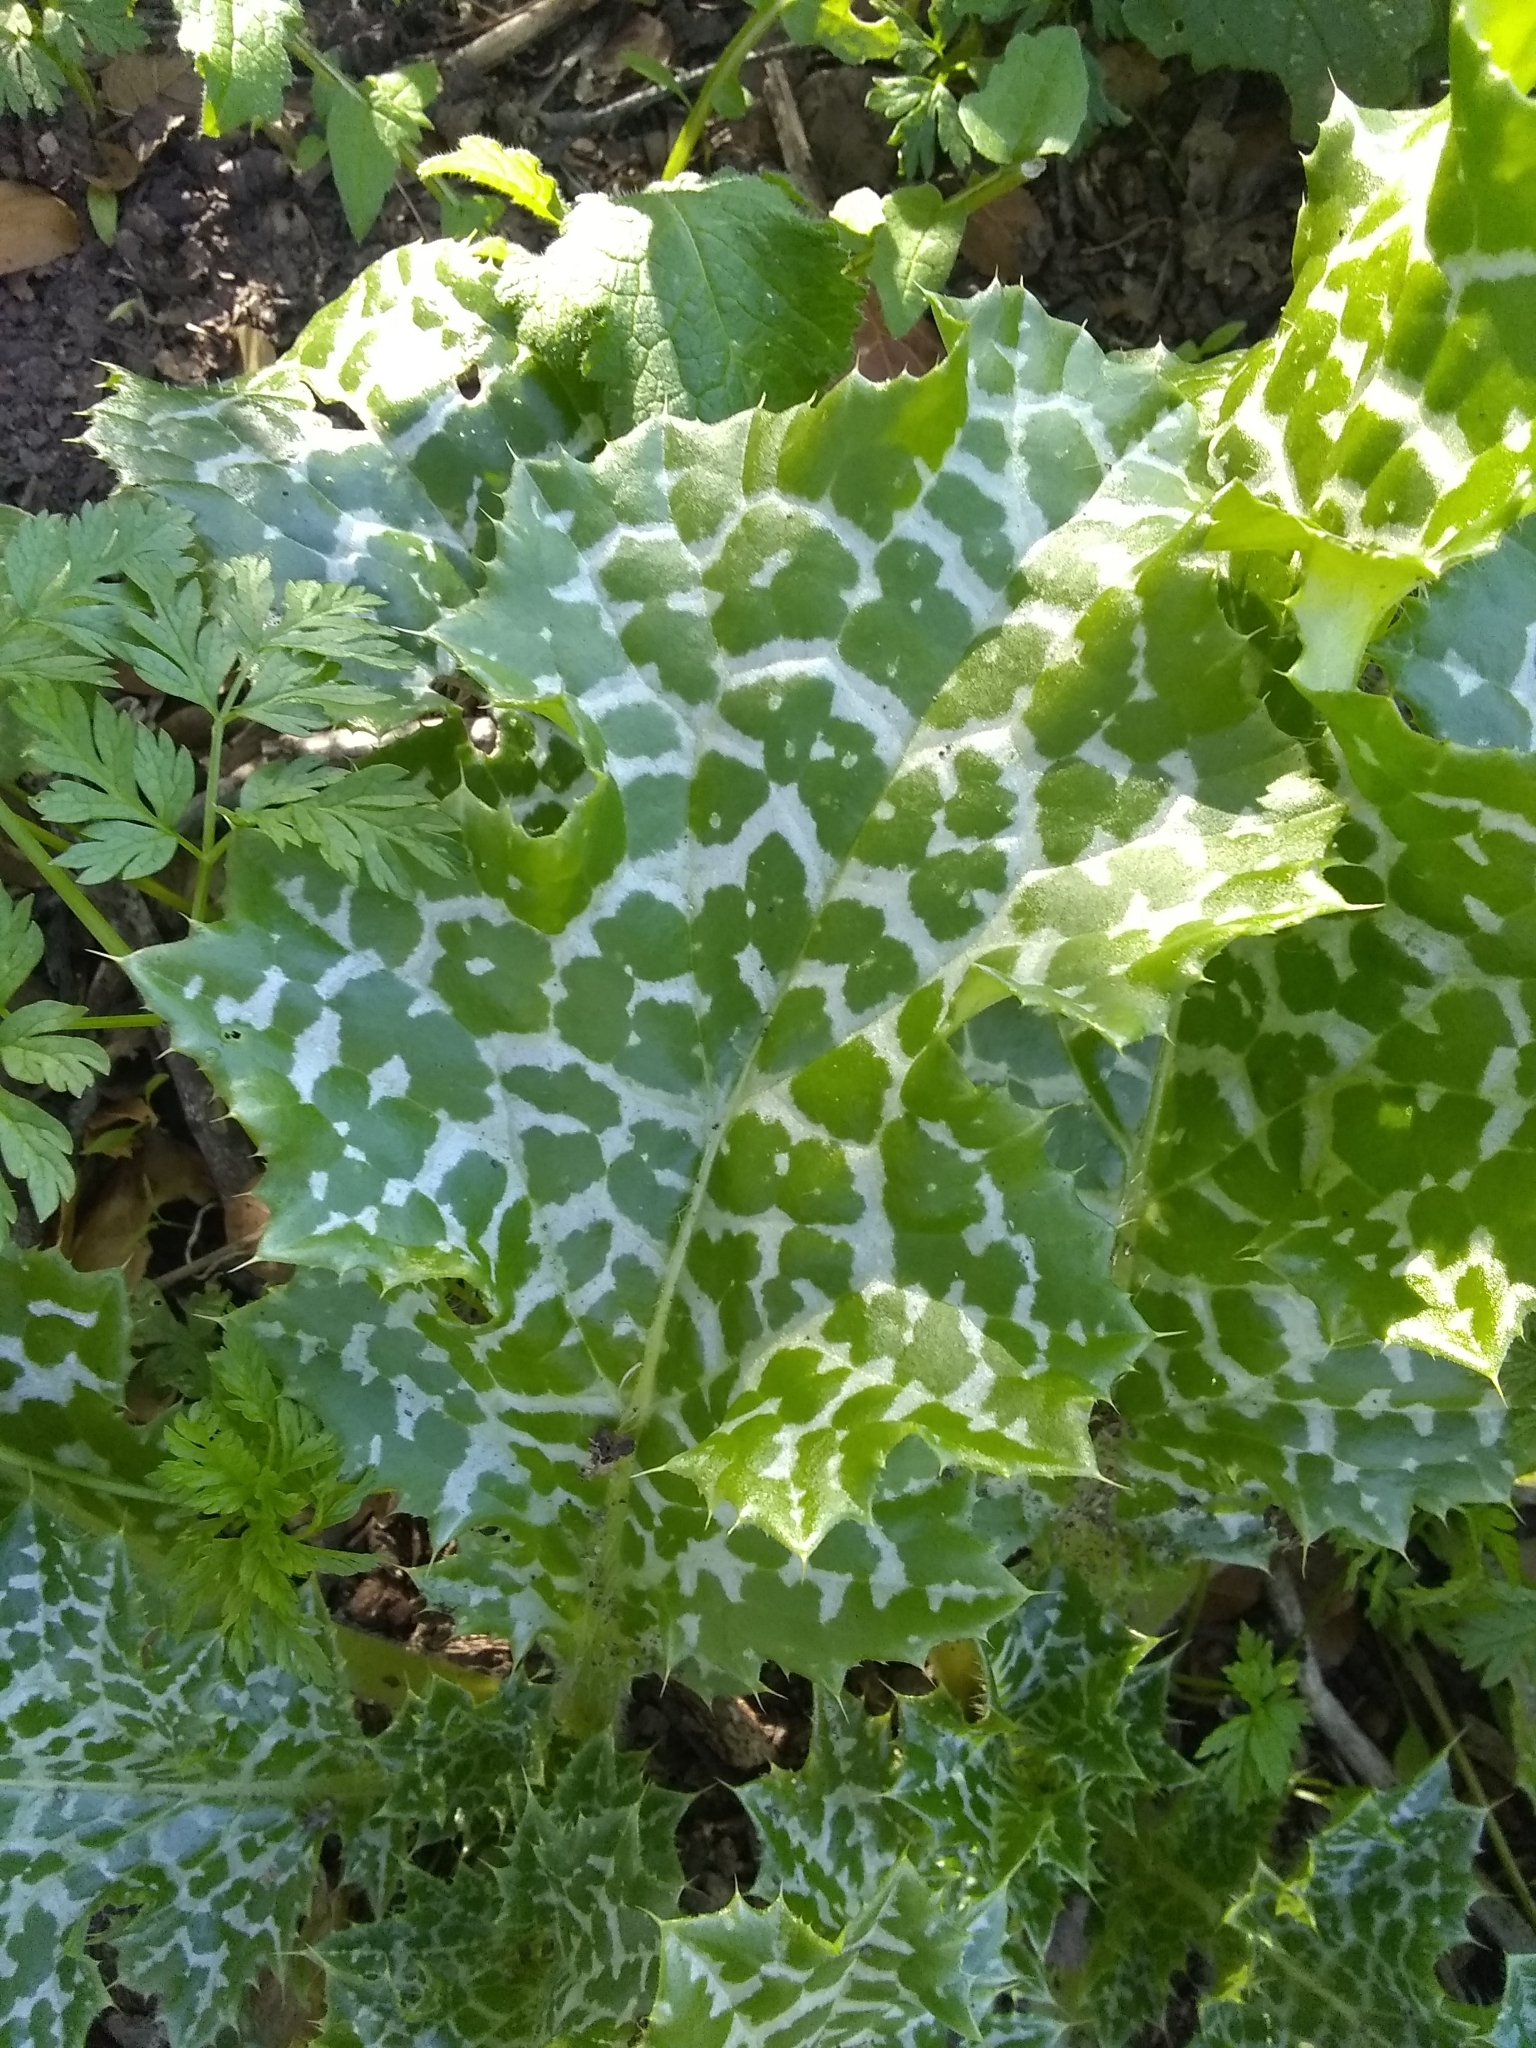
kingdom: Plantae
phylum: Tracheophyta
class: Magnoliopsida
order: Asterales
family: Asteraceae
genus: Silybum
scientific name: Silybum marianum
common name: Milk thistle
